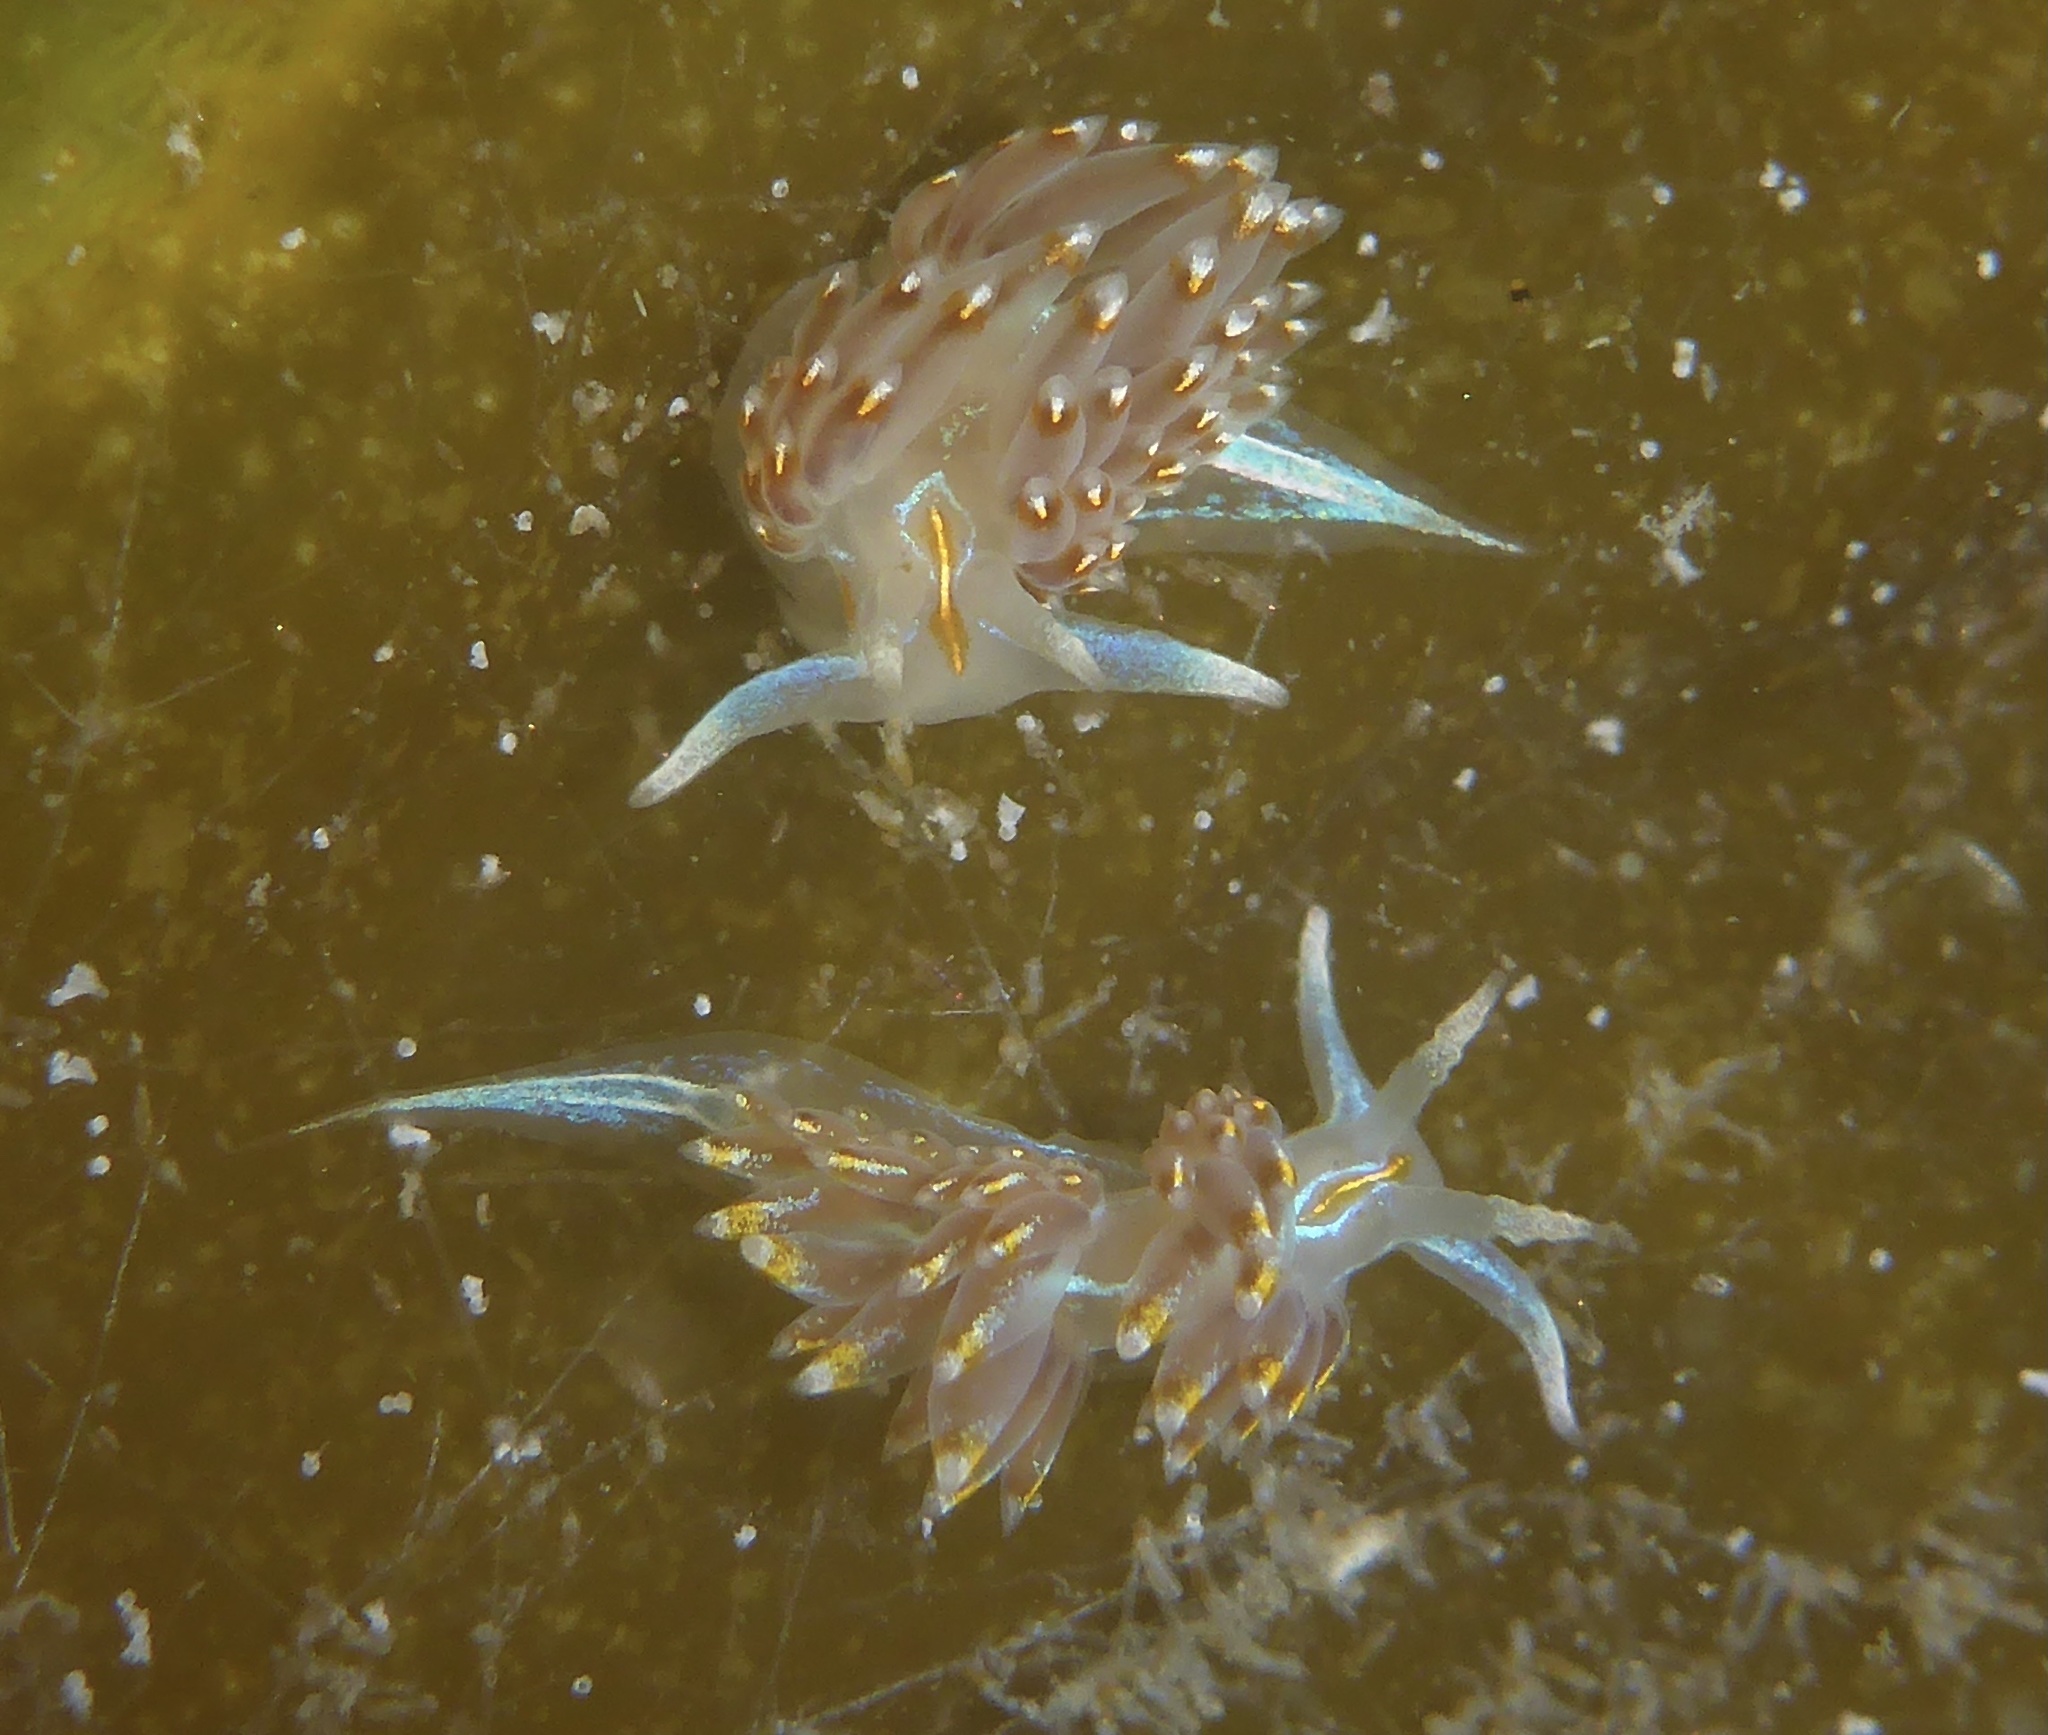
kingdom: Animalia
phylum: Mollusca
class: Gastropoda
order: Nudibranchia
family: Myrrhinidae
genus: Hermissenda
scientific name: Hermissenda opalescens
